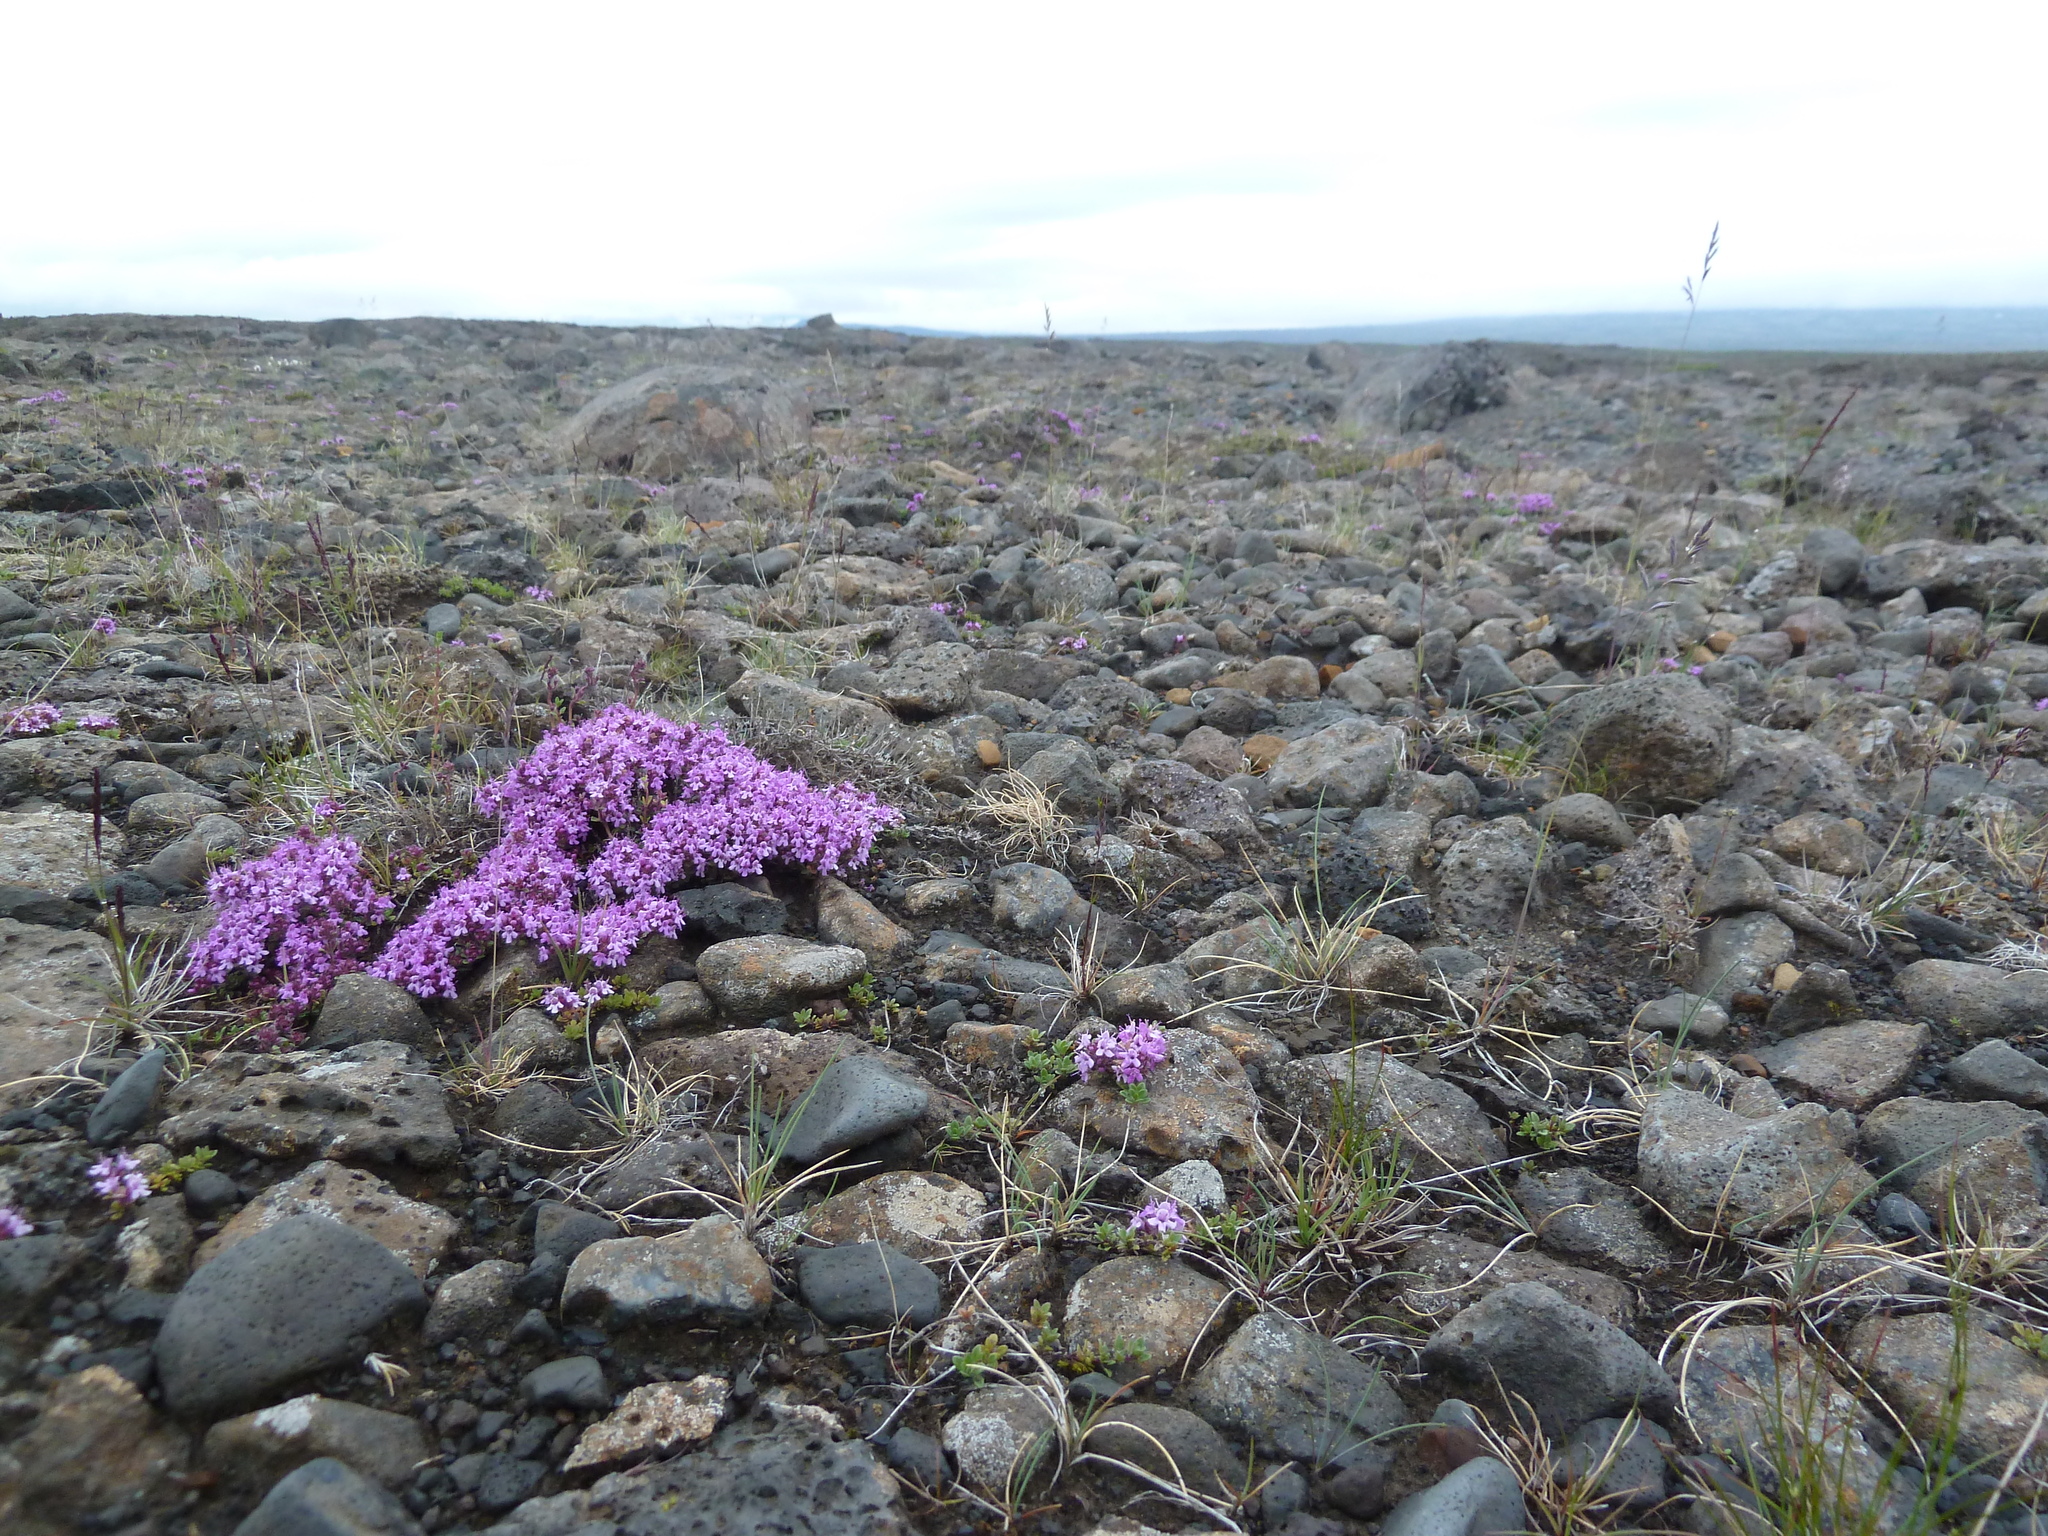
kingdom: Plantae
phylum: Tracheophyta
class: Magnoliopsida
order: Lamiales
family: Lamiaceae
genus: Thymus
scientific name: Thymus praecox
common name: Wild thyme
